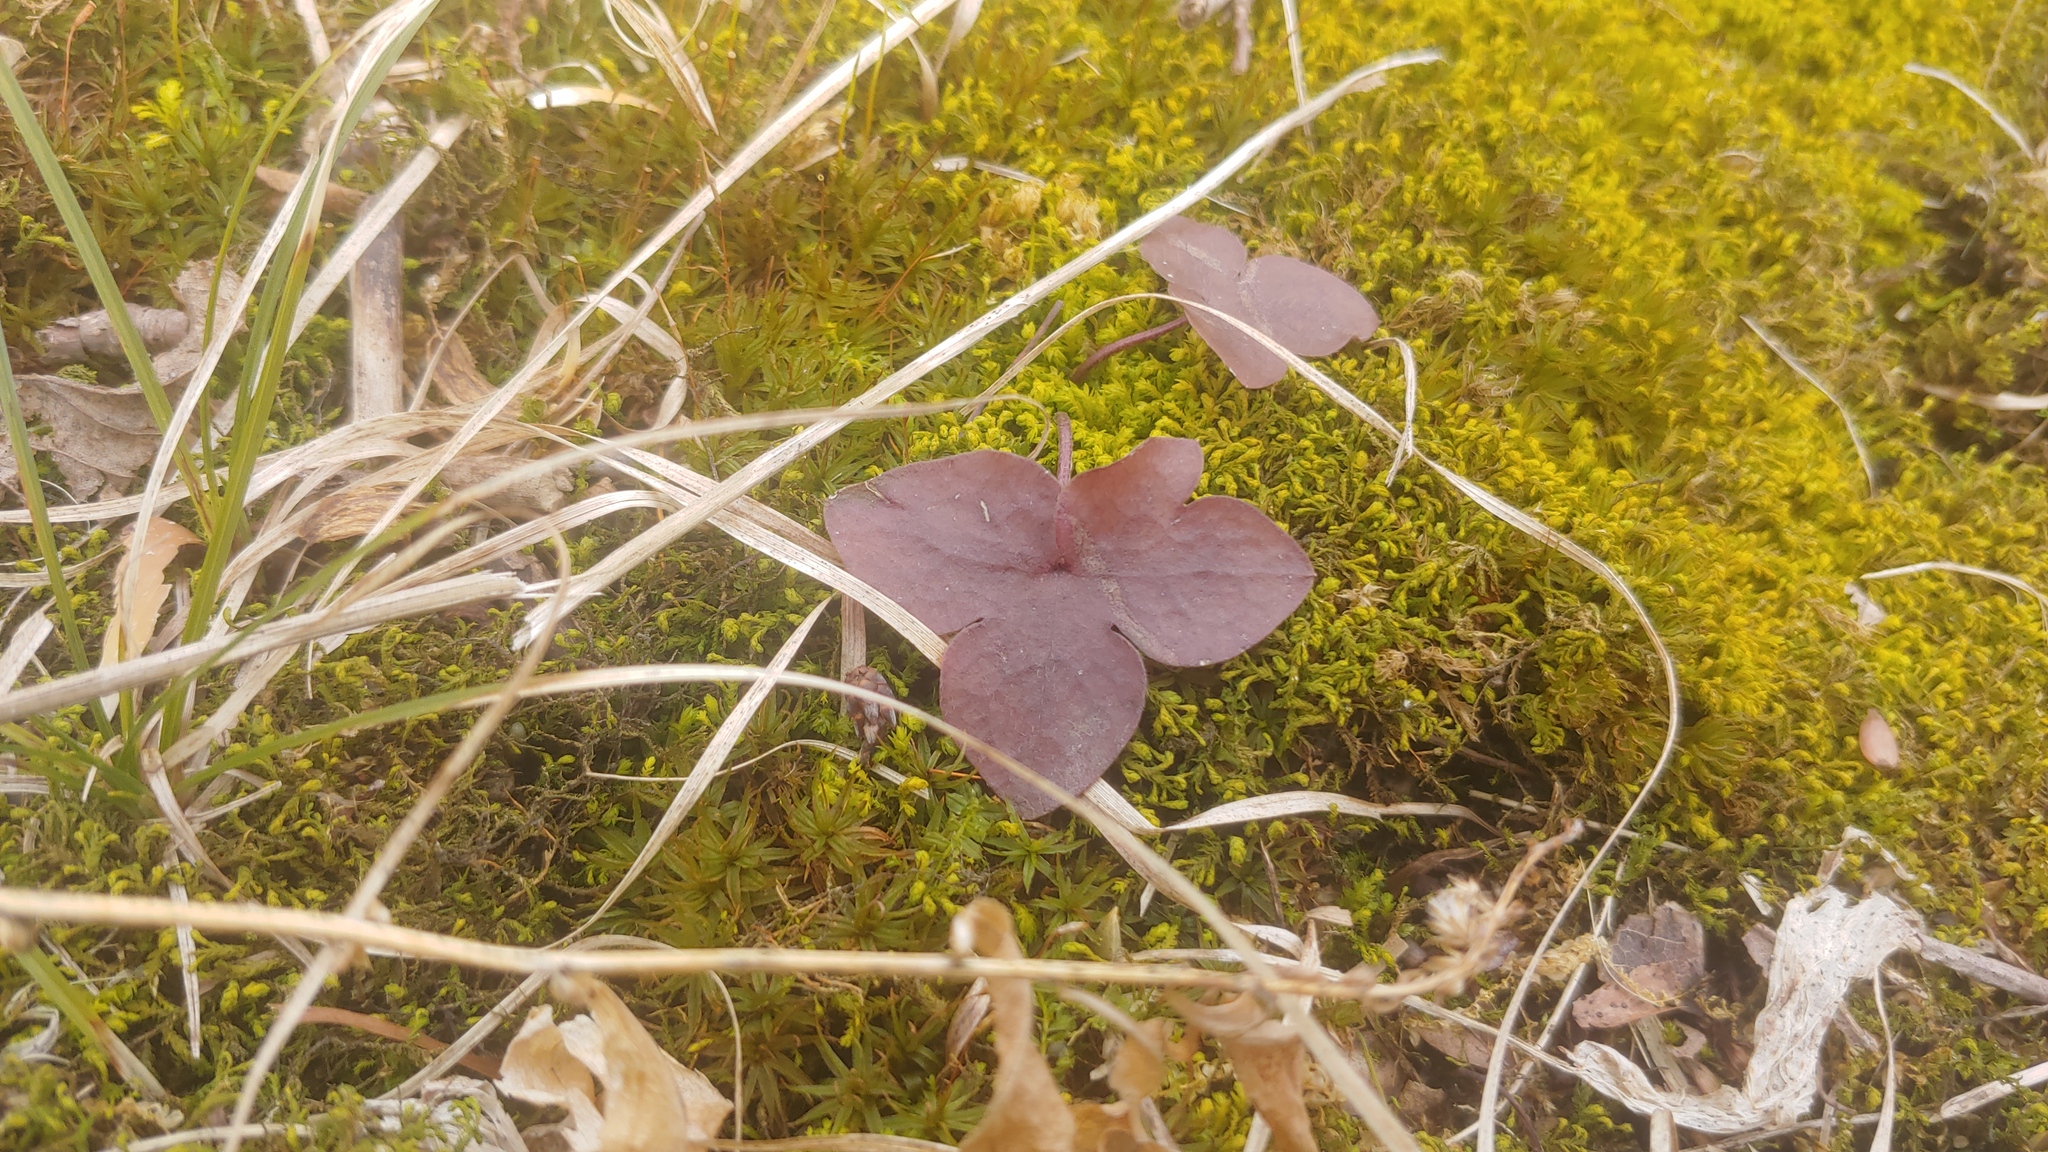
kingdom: Plantae
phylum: Tracheophyta
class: Magnoliopsida
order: Ranunculales
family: Ranunculaceae
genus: Hepatica
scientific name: Hepatica acutiloba
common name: Sharp-lobed hepatica
